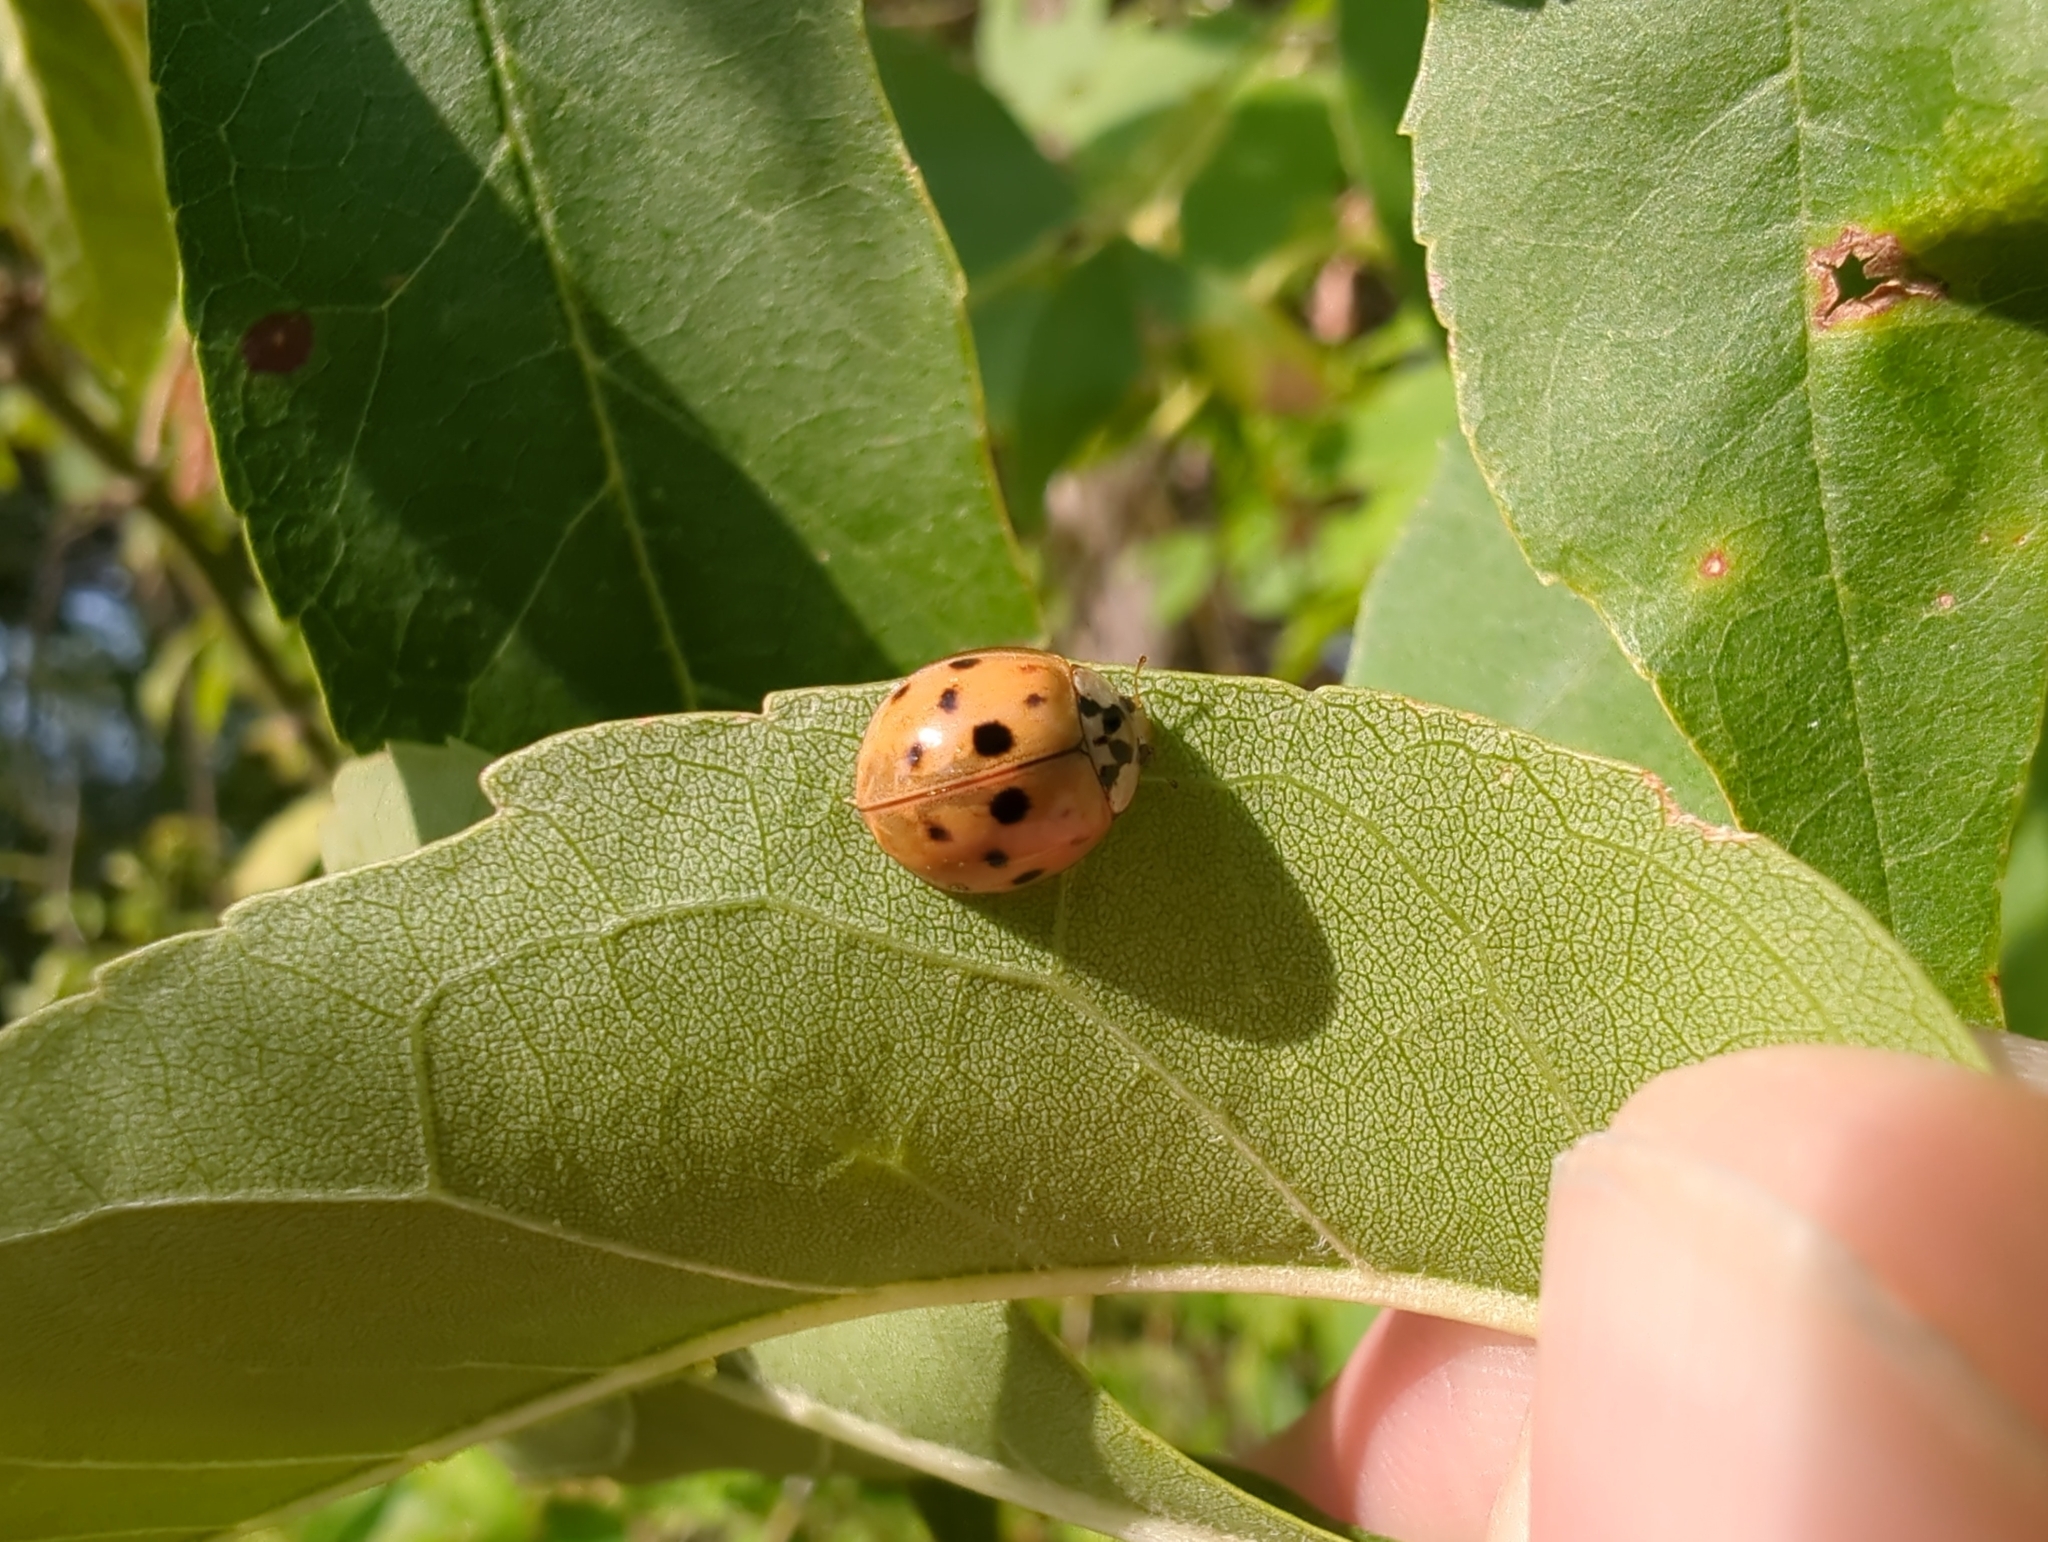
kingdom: Animalia
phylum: Arthropoda
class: Insecta
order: Coleoptera
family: Coccinellidae
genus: Harmonia
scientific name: Harmonia axyridis
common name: Harlequin ladybird
